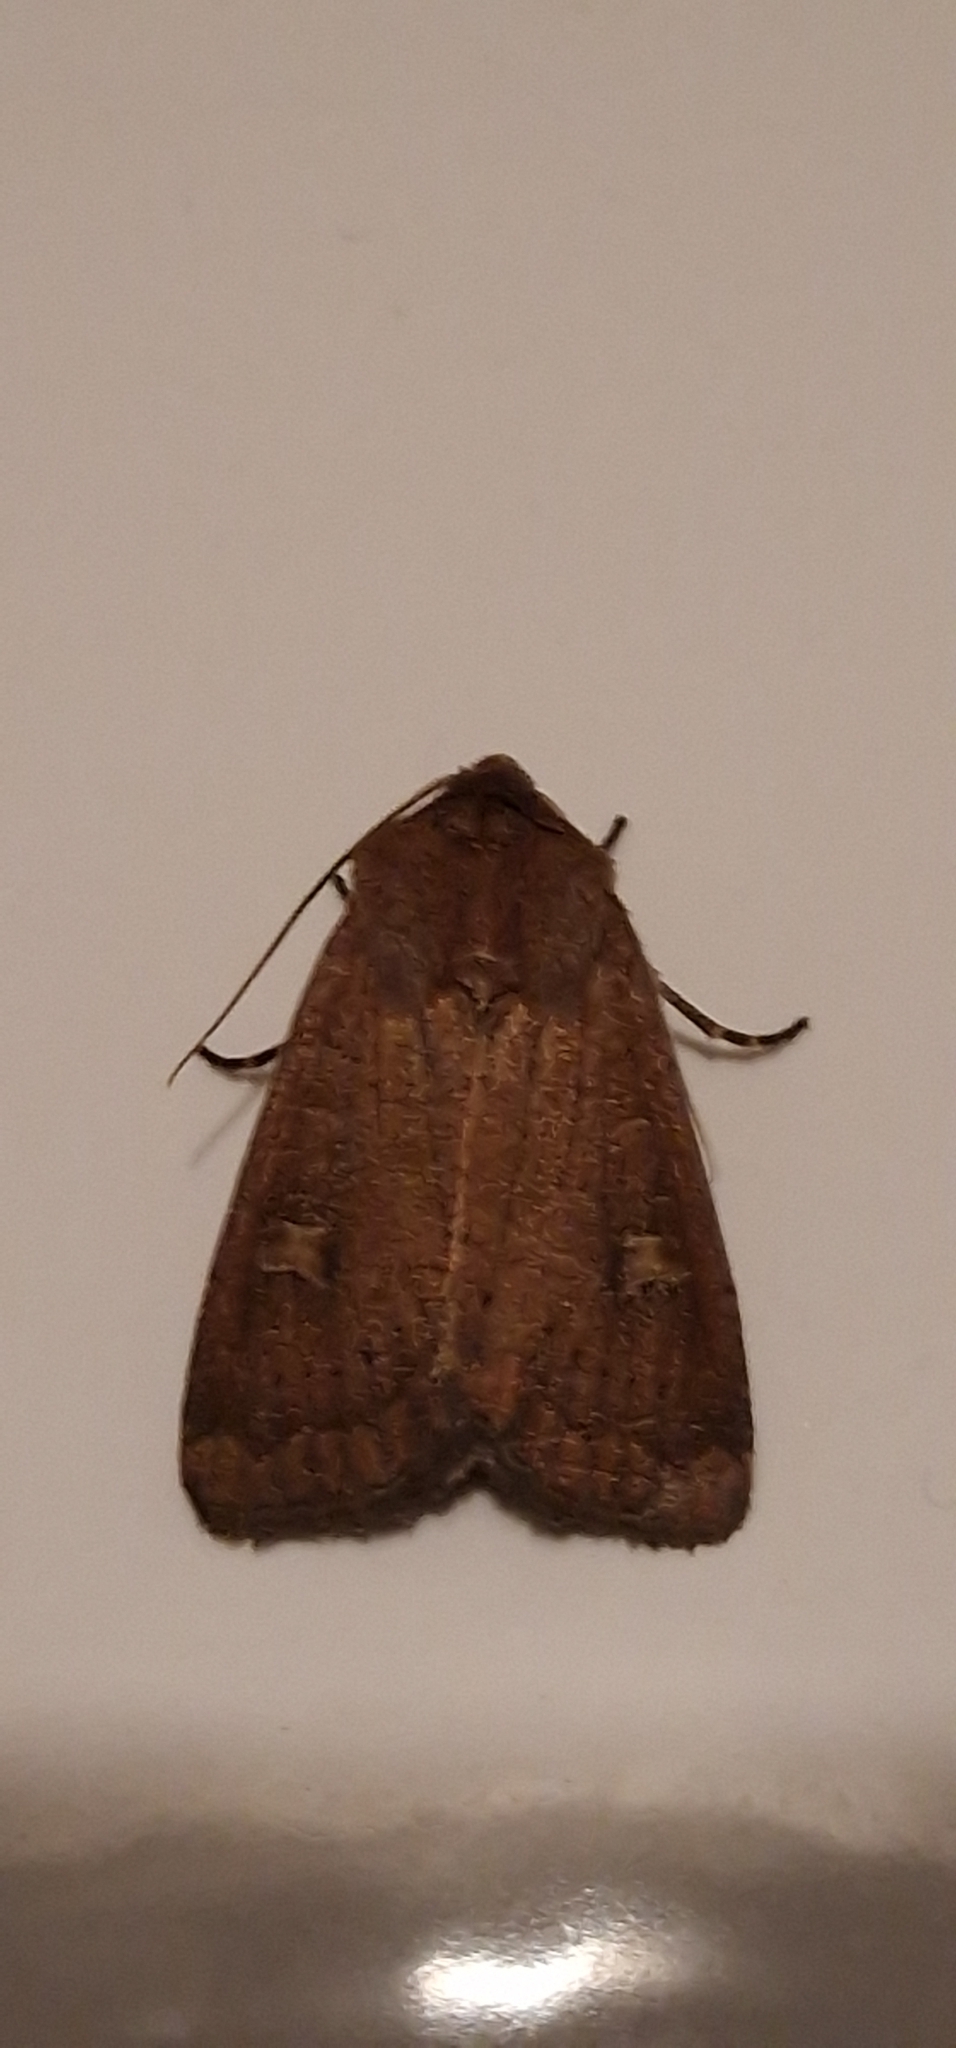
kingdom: Animalia
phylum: Arthropoda
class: Insecta
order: Lepidoptera
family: Noctuidae
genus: Xestia
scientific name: Xestia xanthographa
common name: Square-spot rustic
